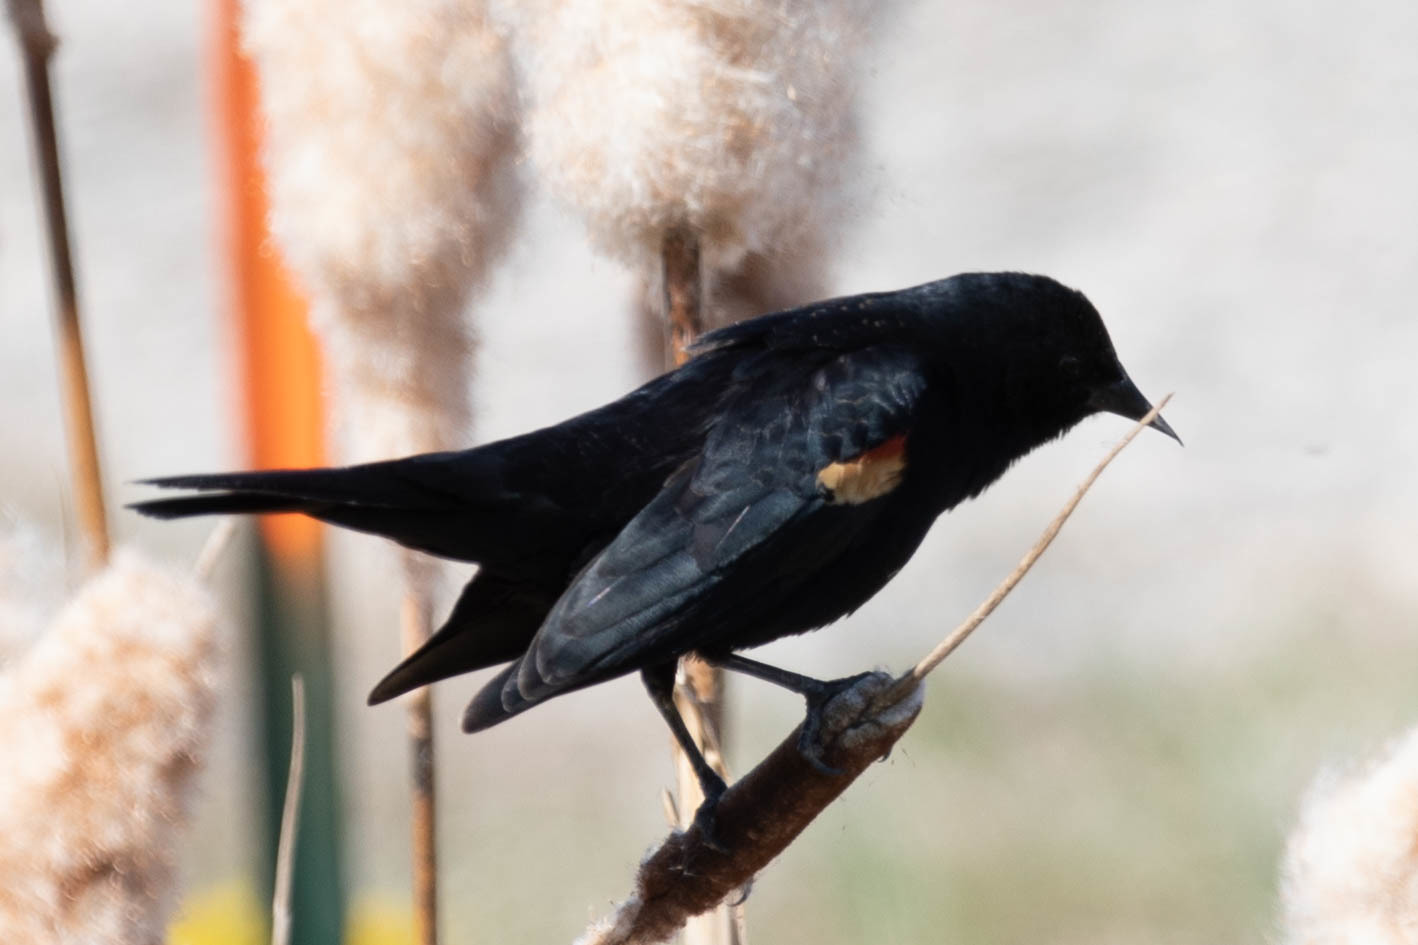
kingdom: Animalia
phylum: Chordata
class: Aves
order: Passeriformes
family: Icteridae
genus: Agelaius
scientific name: Agelaius phoeniceus
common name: Red-winged blackbird
